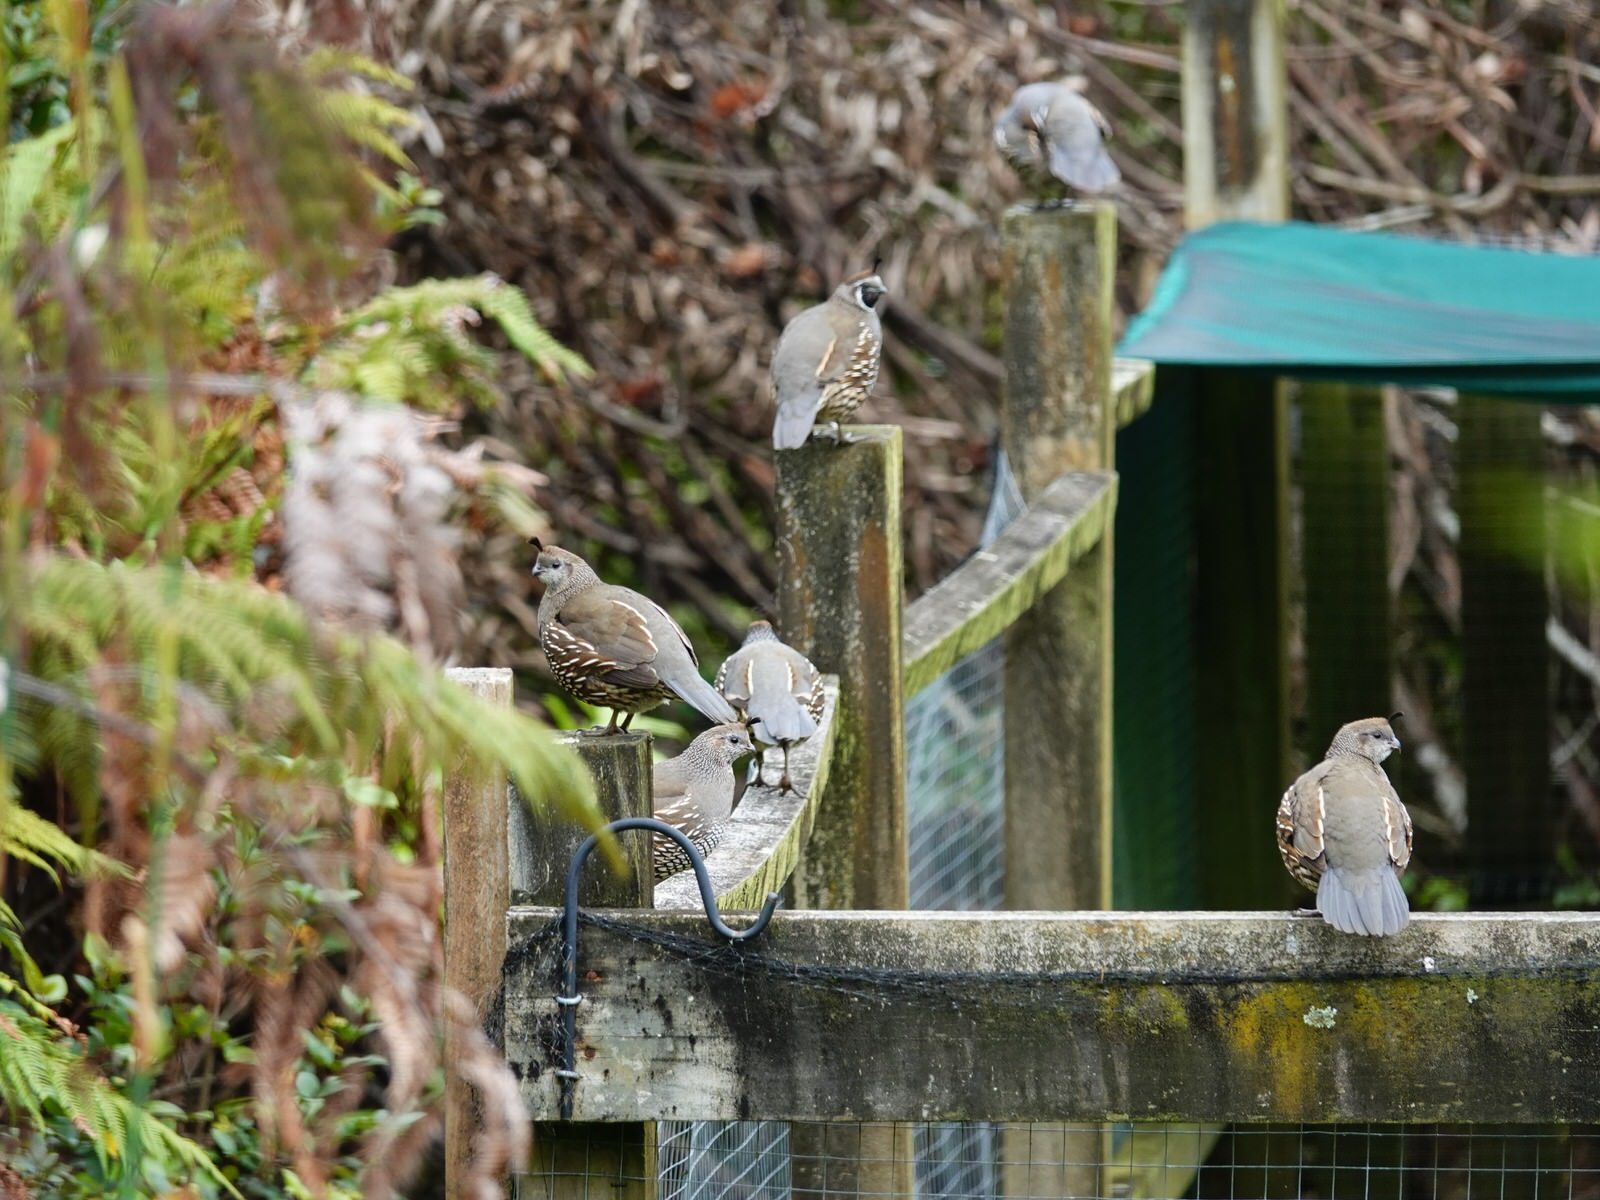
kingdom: Animalia
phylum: Chordata
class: Aves
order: Galliformes
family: Odontophoridae
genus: Callipepla
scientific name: Callipepla californica
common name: California quail
